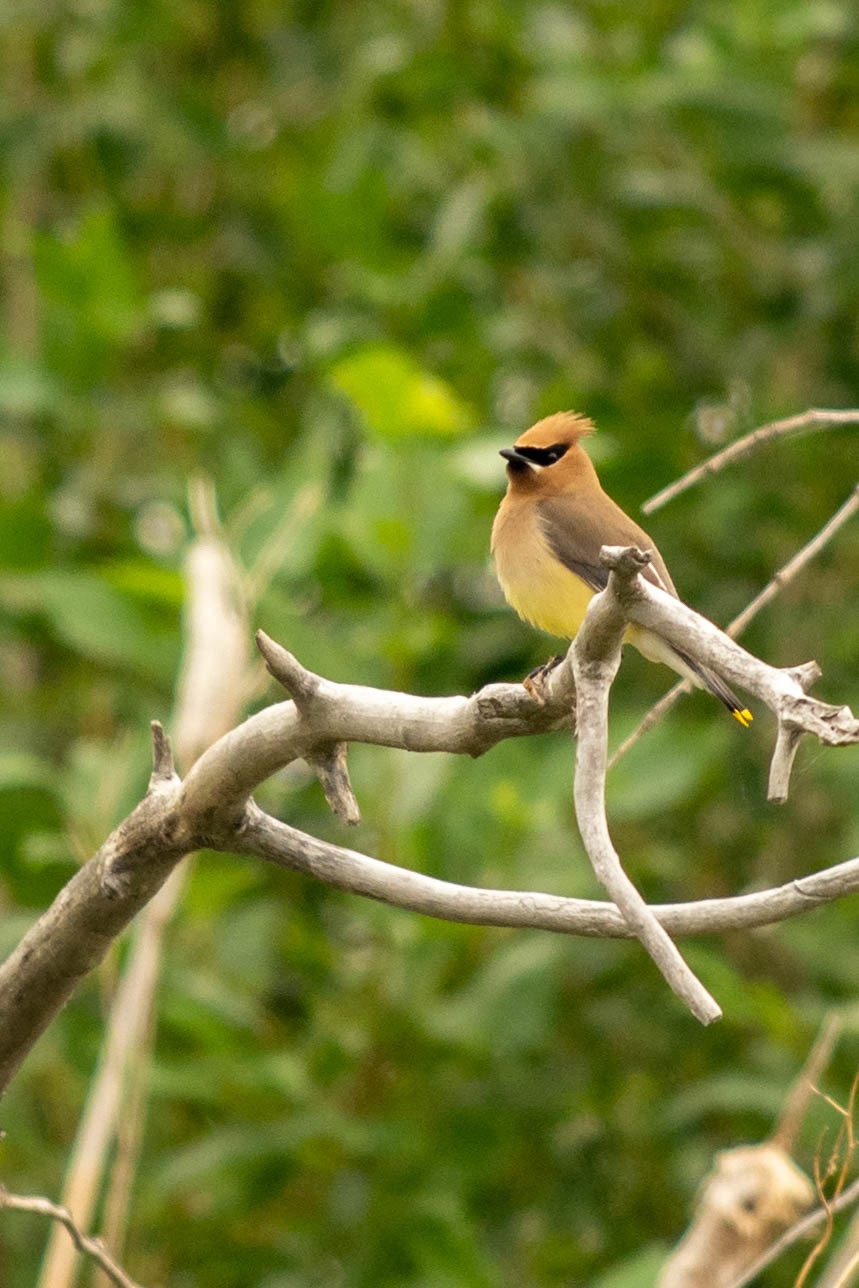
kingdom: Animalia
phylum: Chordata
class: Aves
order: Passeriformes
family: Bombycillidae
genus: Bombycilla
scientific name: Bombycilla cedrorum
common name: Cedar waxwing
